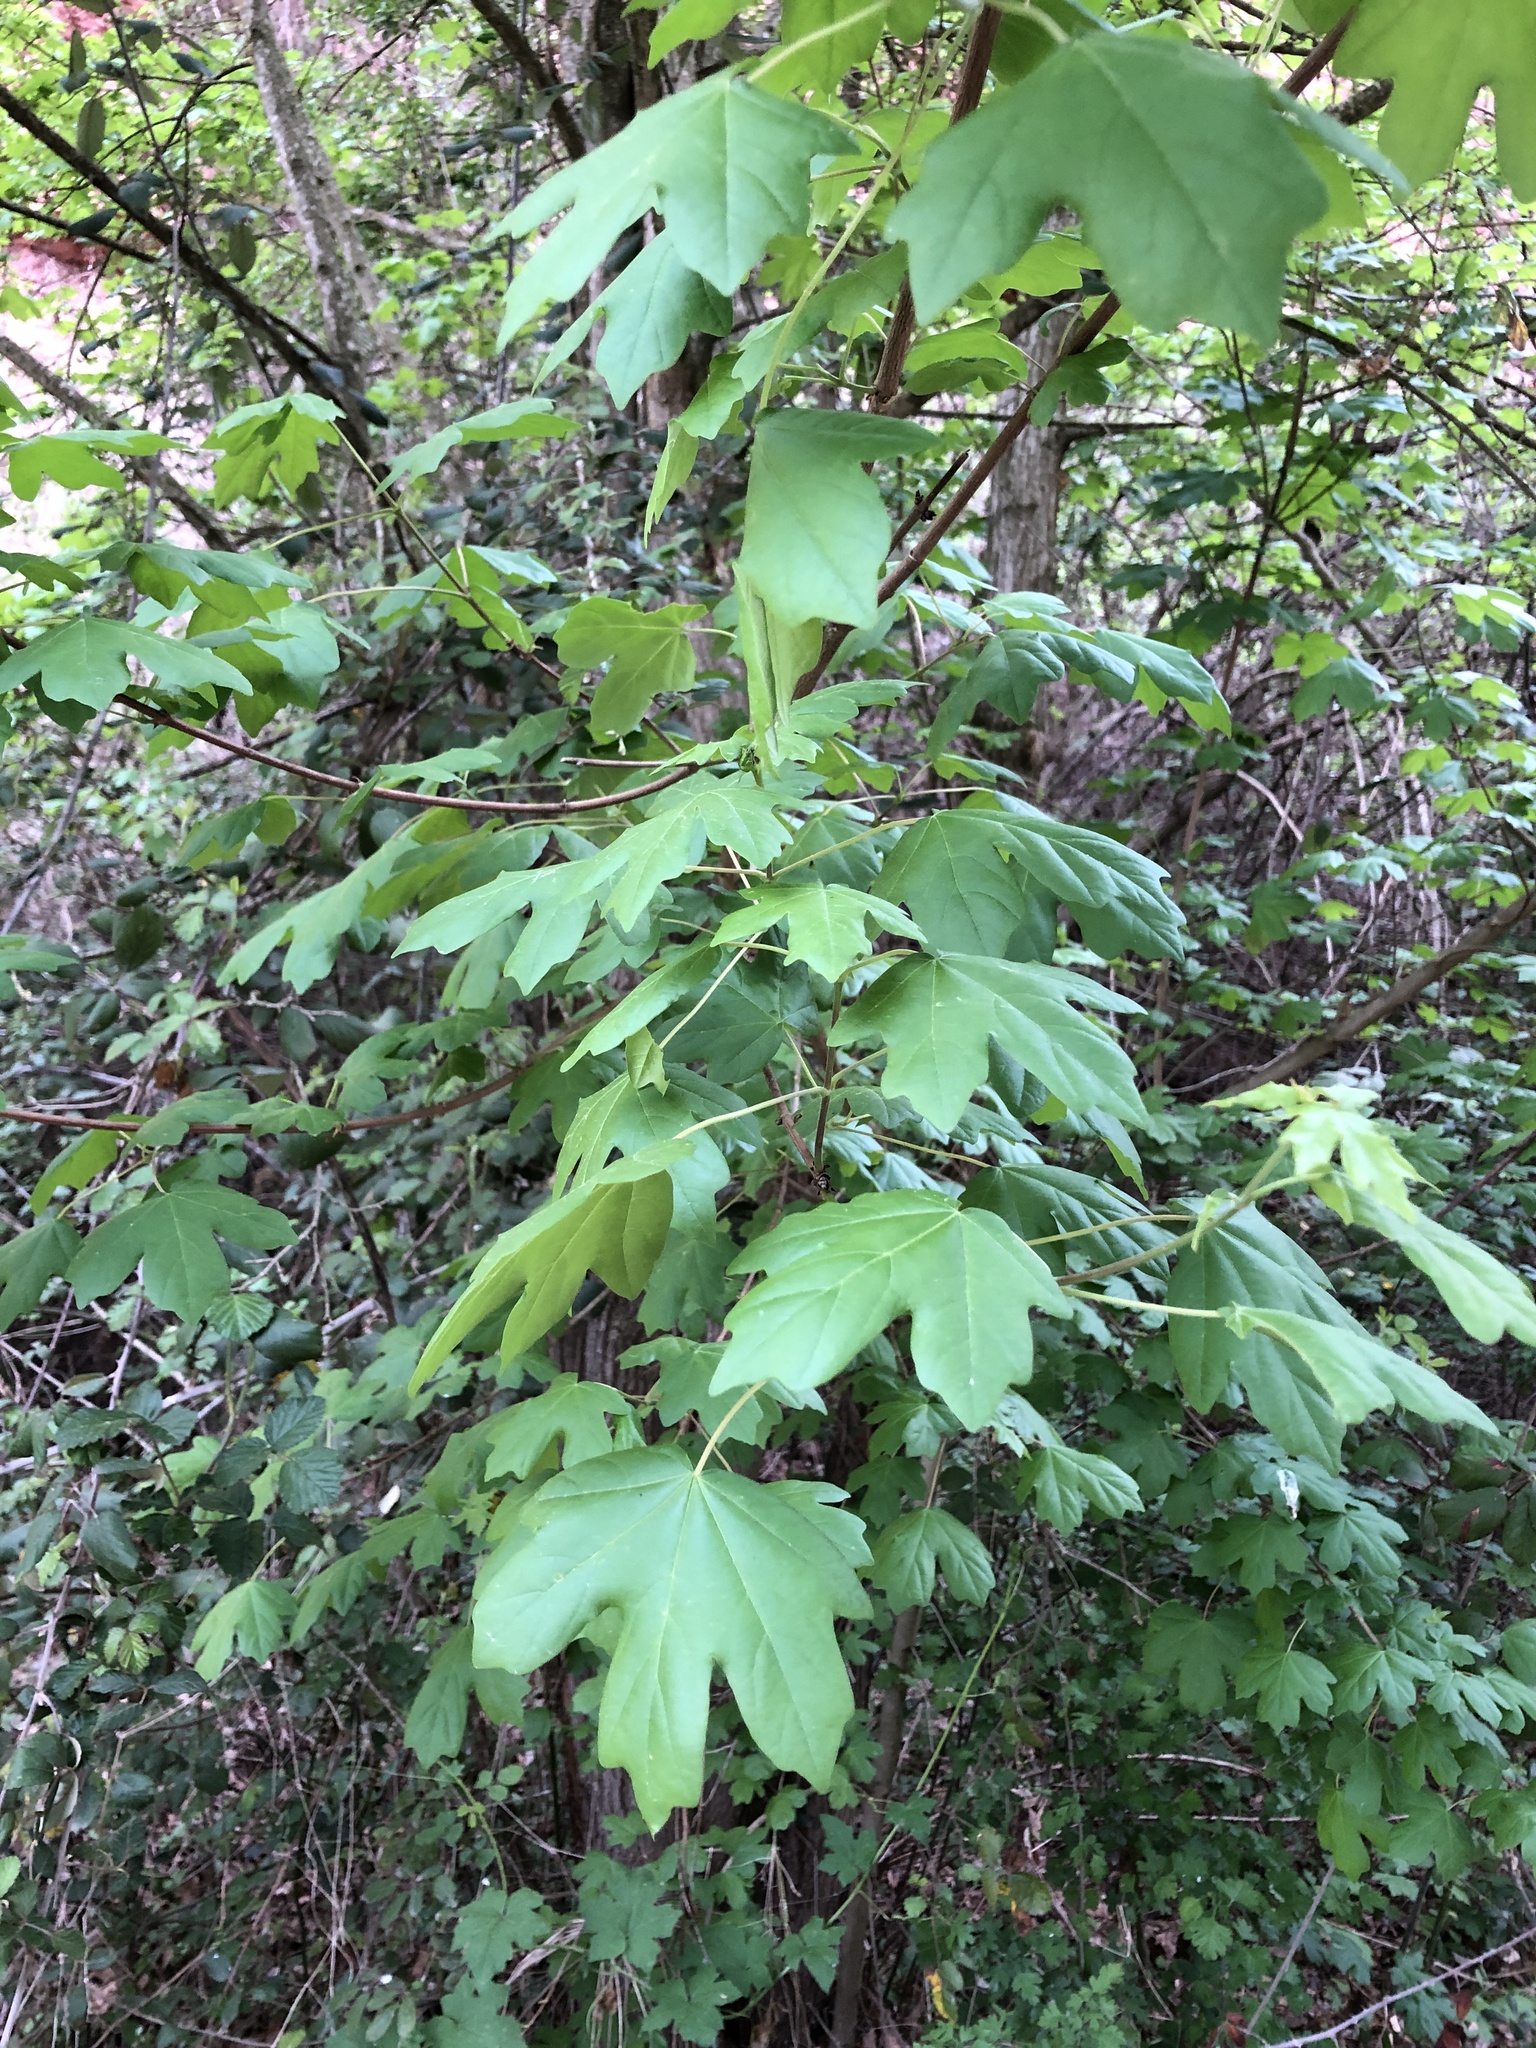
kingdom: Plantae
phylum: Tracheophyta
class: Magnoliopsida
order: Sapindales
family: Sapindaceae
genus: Acer
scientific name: Acer campestre
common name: Field maple
